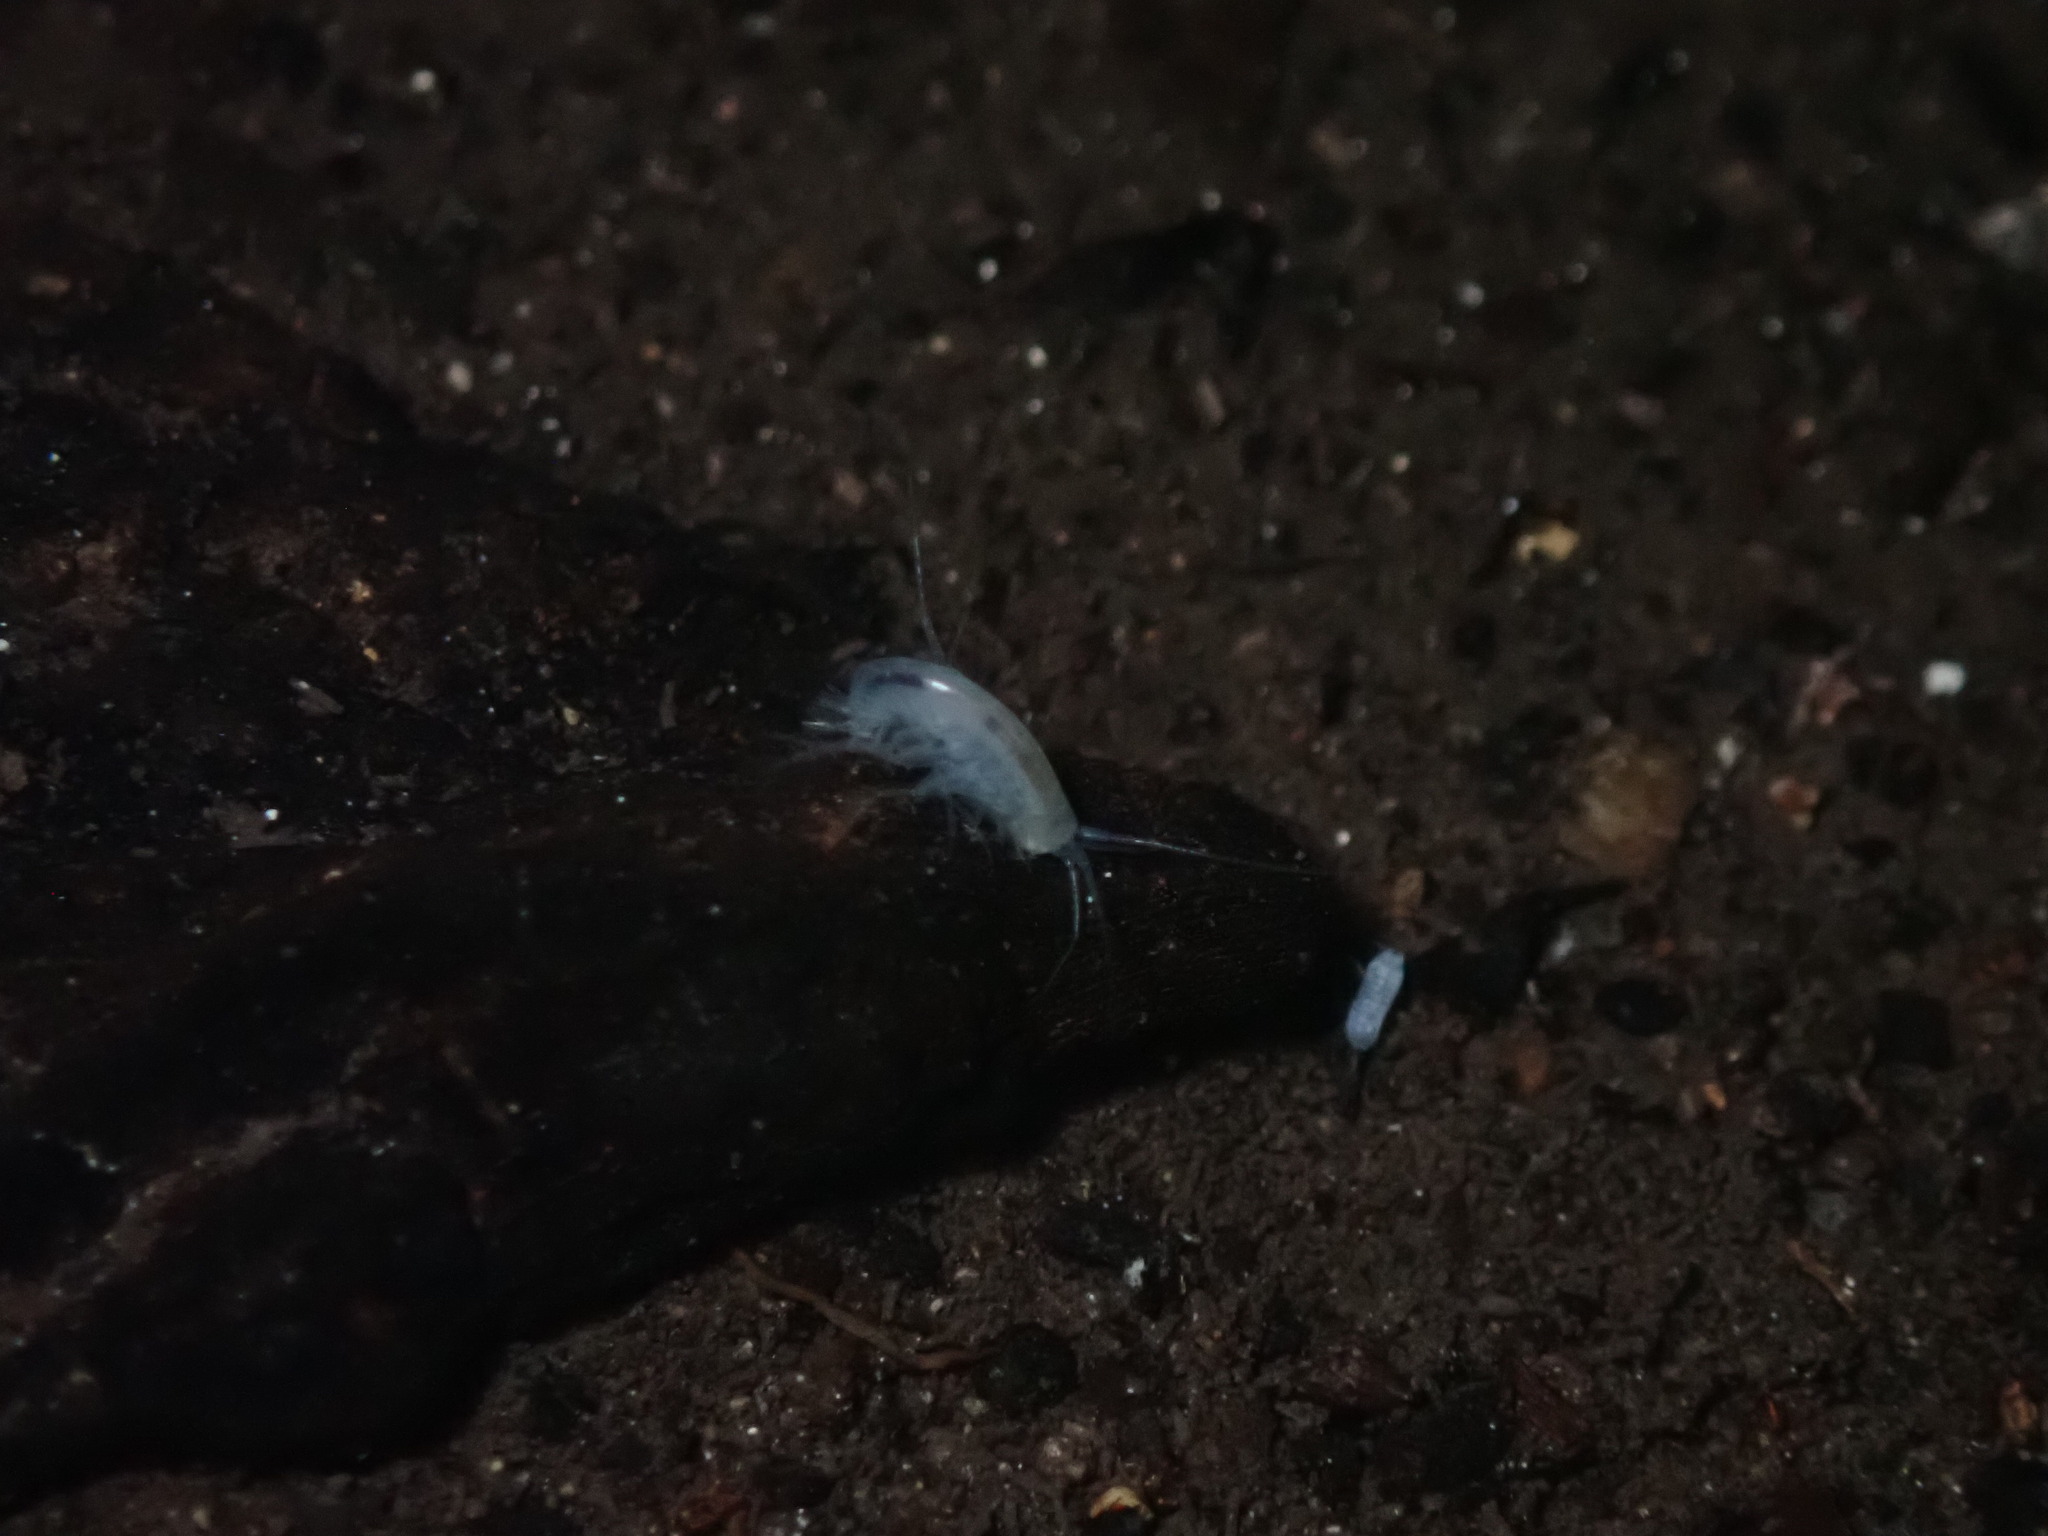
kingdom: Animalia
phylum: Arthropoda
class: Malacostraca
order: Amphipoda
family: Hadziidae
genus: Bahadzia
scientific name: Bahadzia caymanensis
